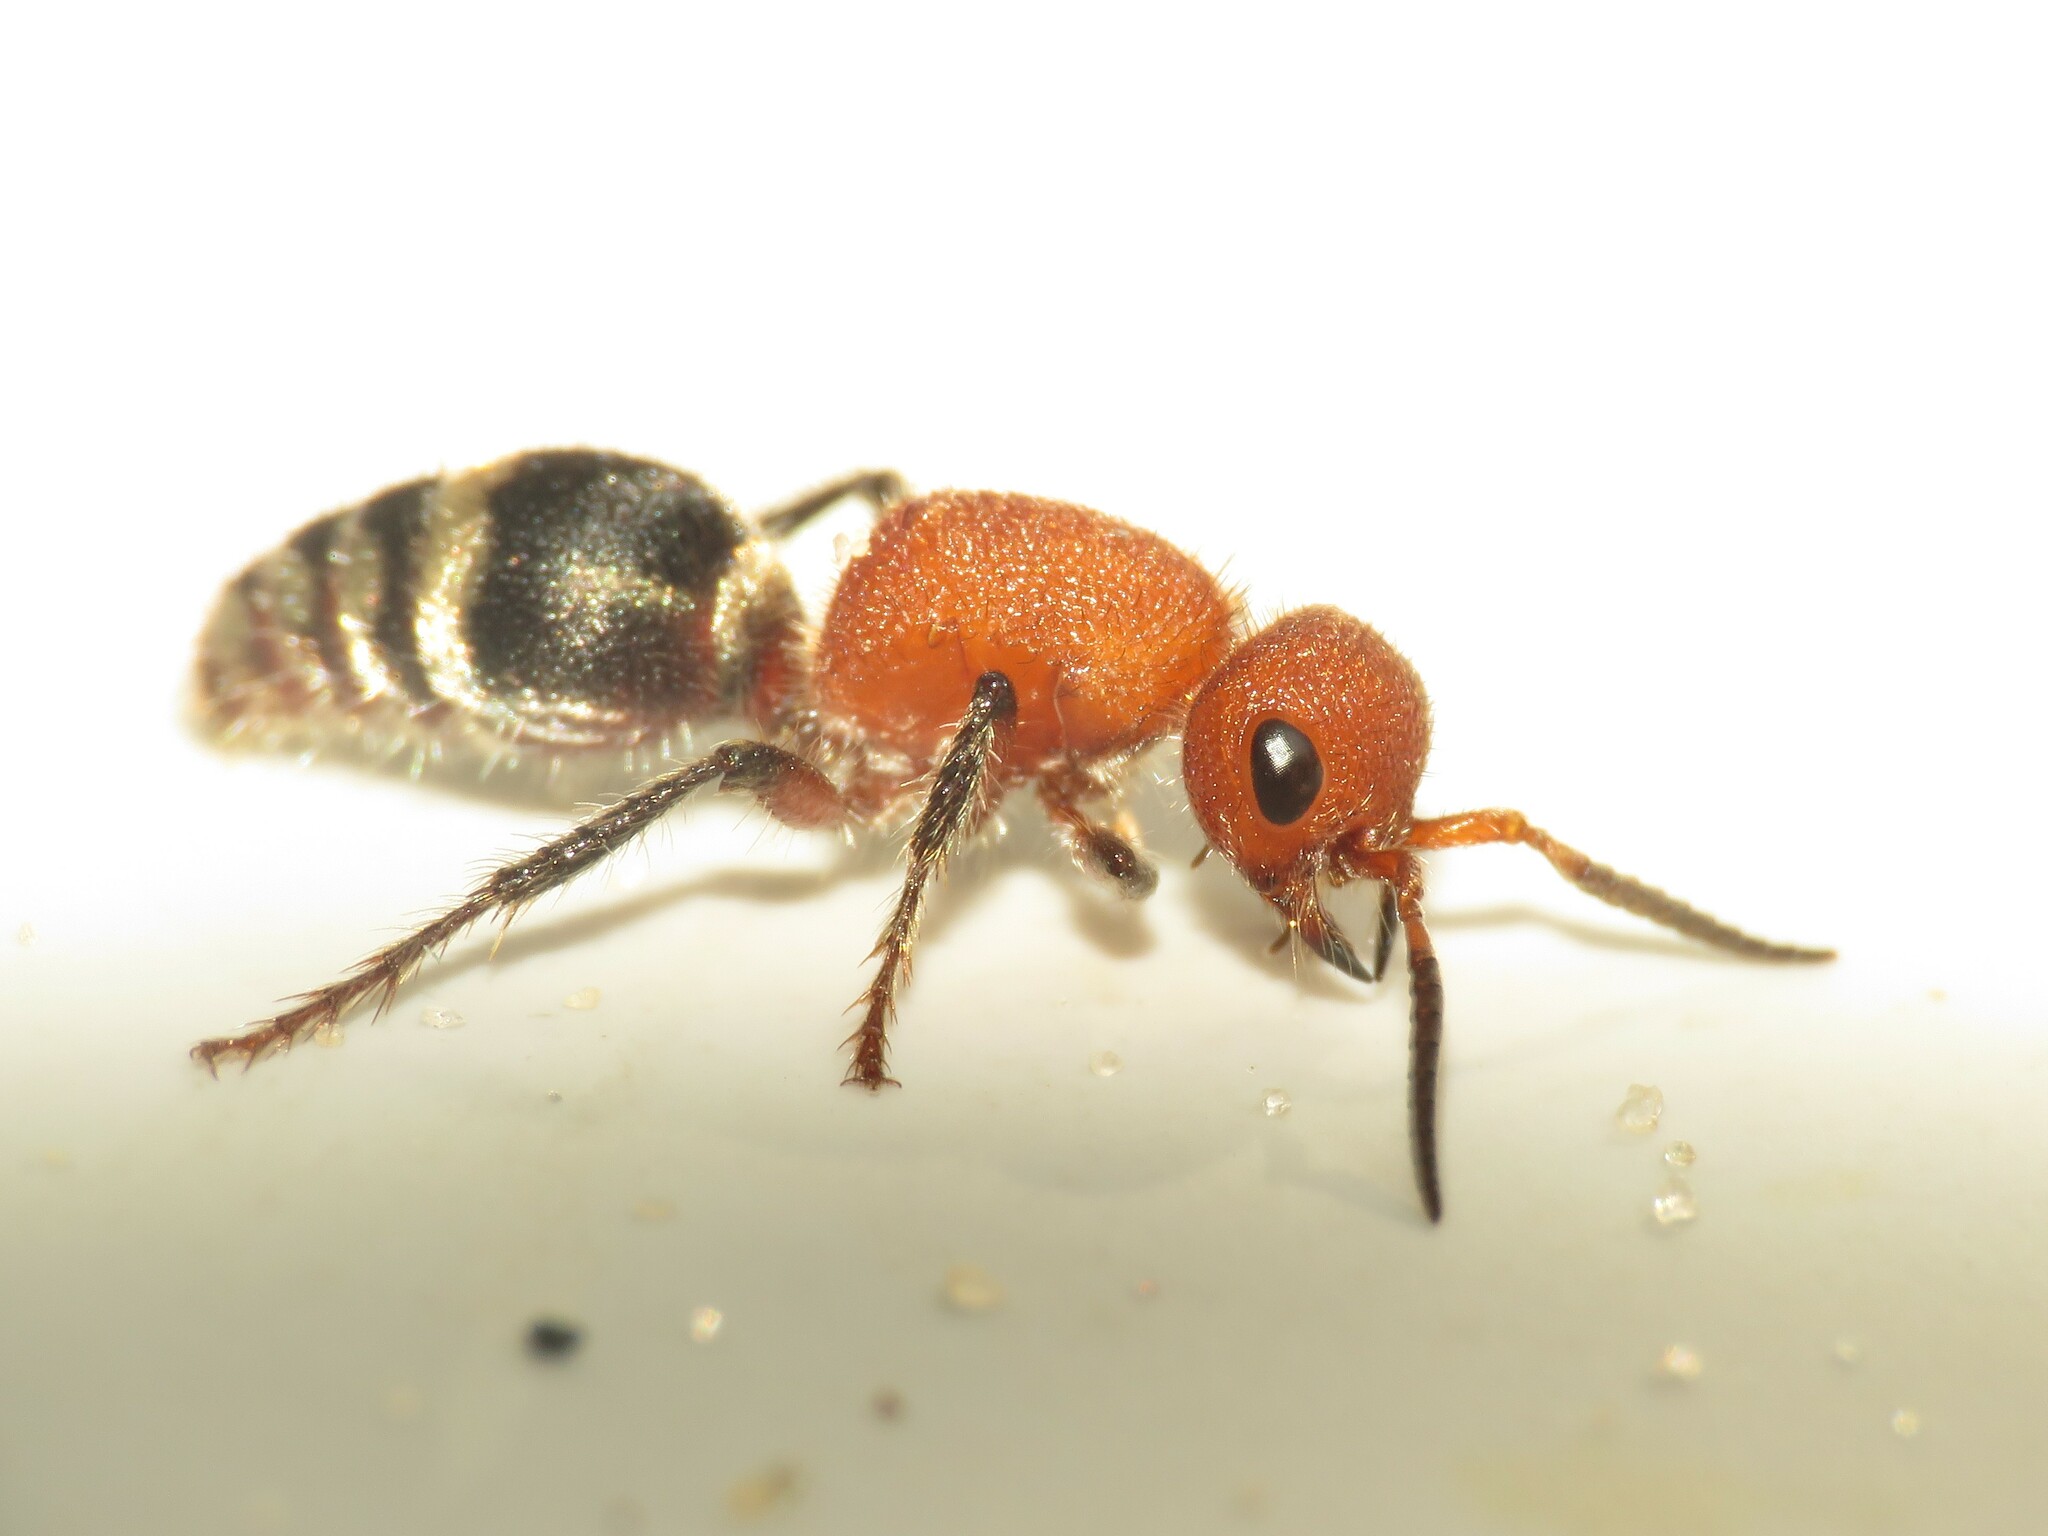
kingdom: Animalia
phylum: Arthropoda
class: Insecta
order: Hymenoptera
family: Mutillidae
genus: Timulla
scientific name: Timulla
